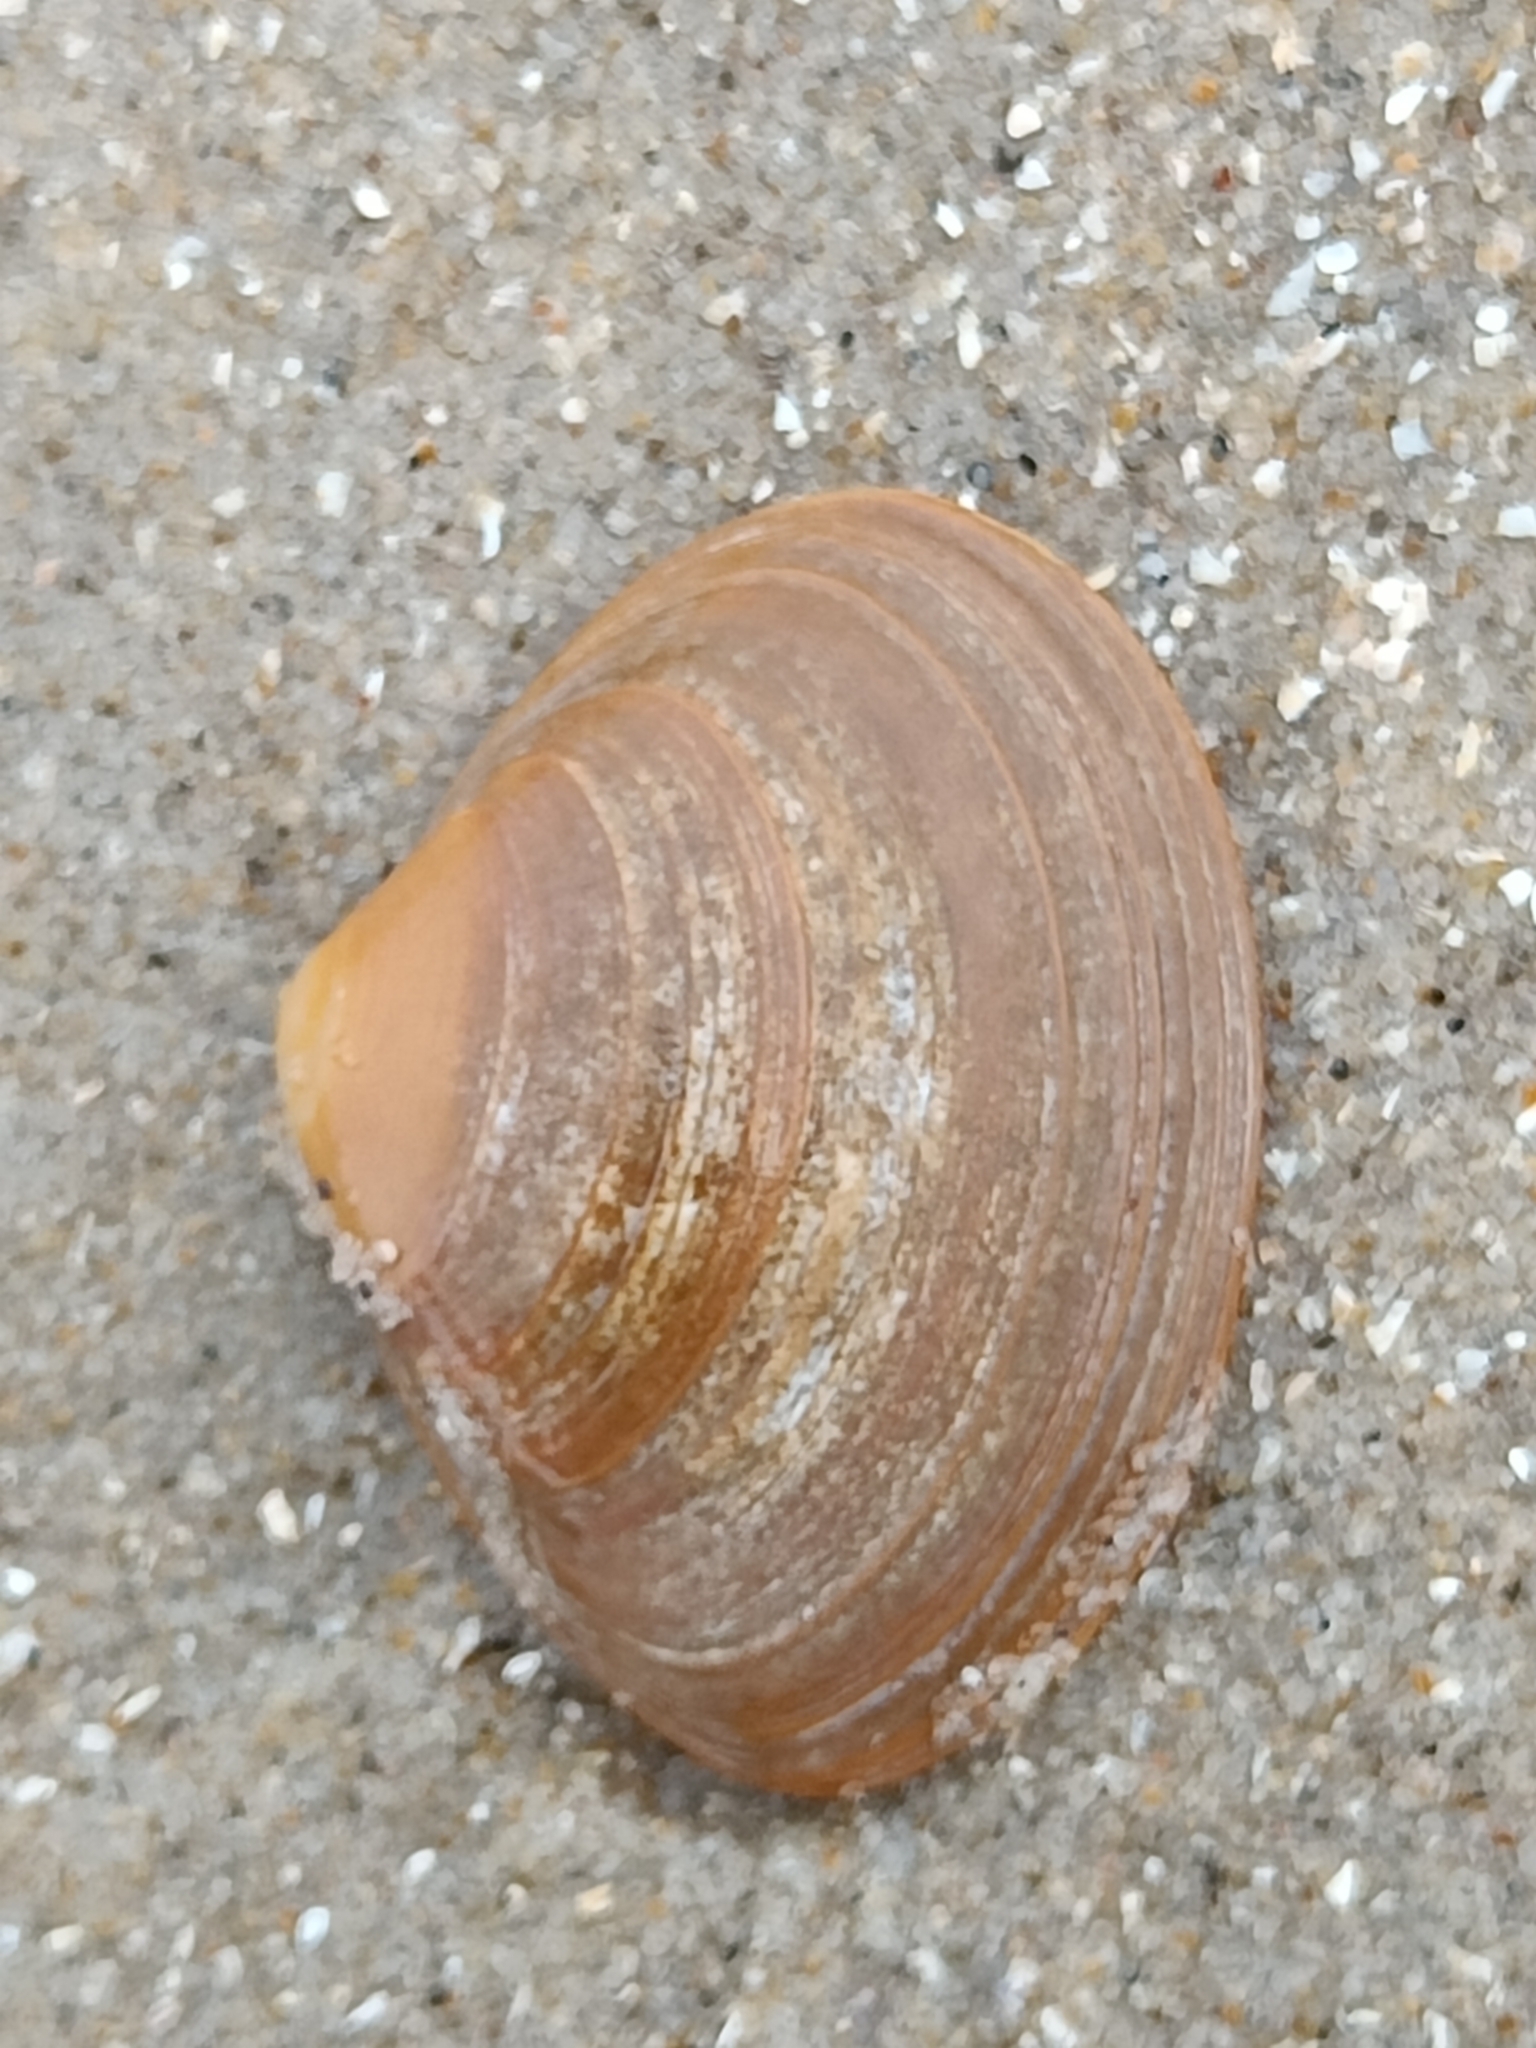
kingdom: Animalia
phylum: Mollusca
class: Bivalvia
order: Venerida
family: Mactridae
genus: Spisula
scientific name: Spisula solida
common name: Thick trough shell
